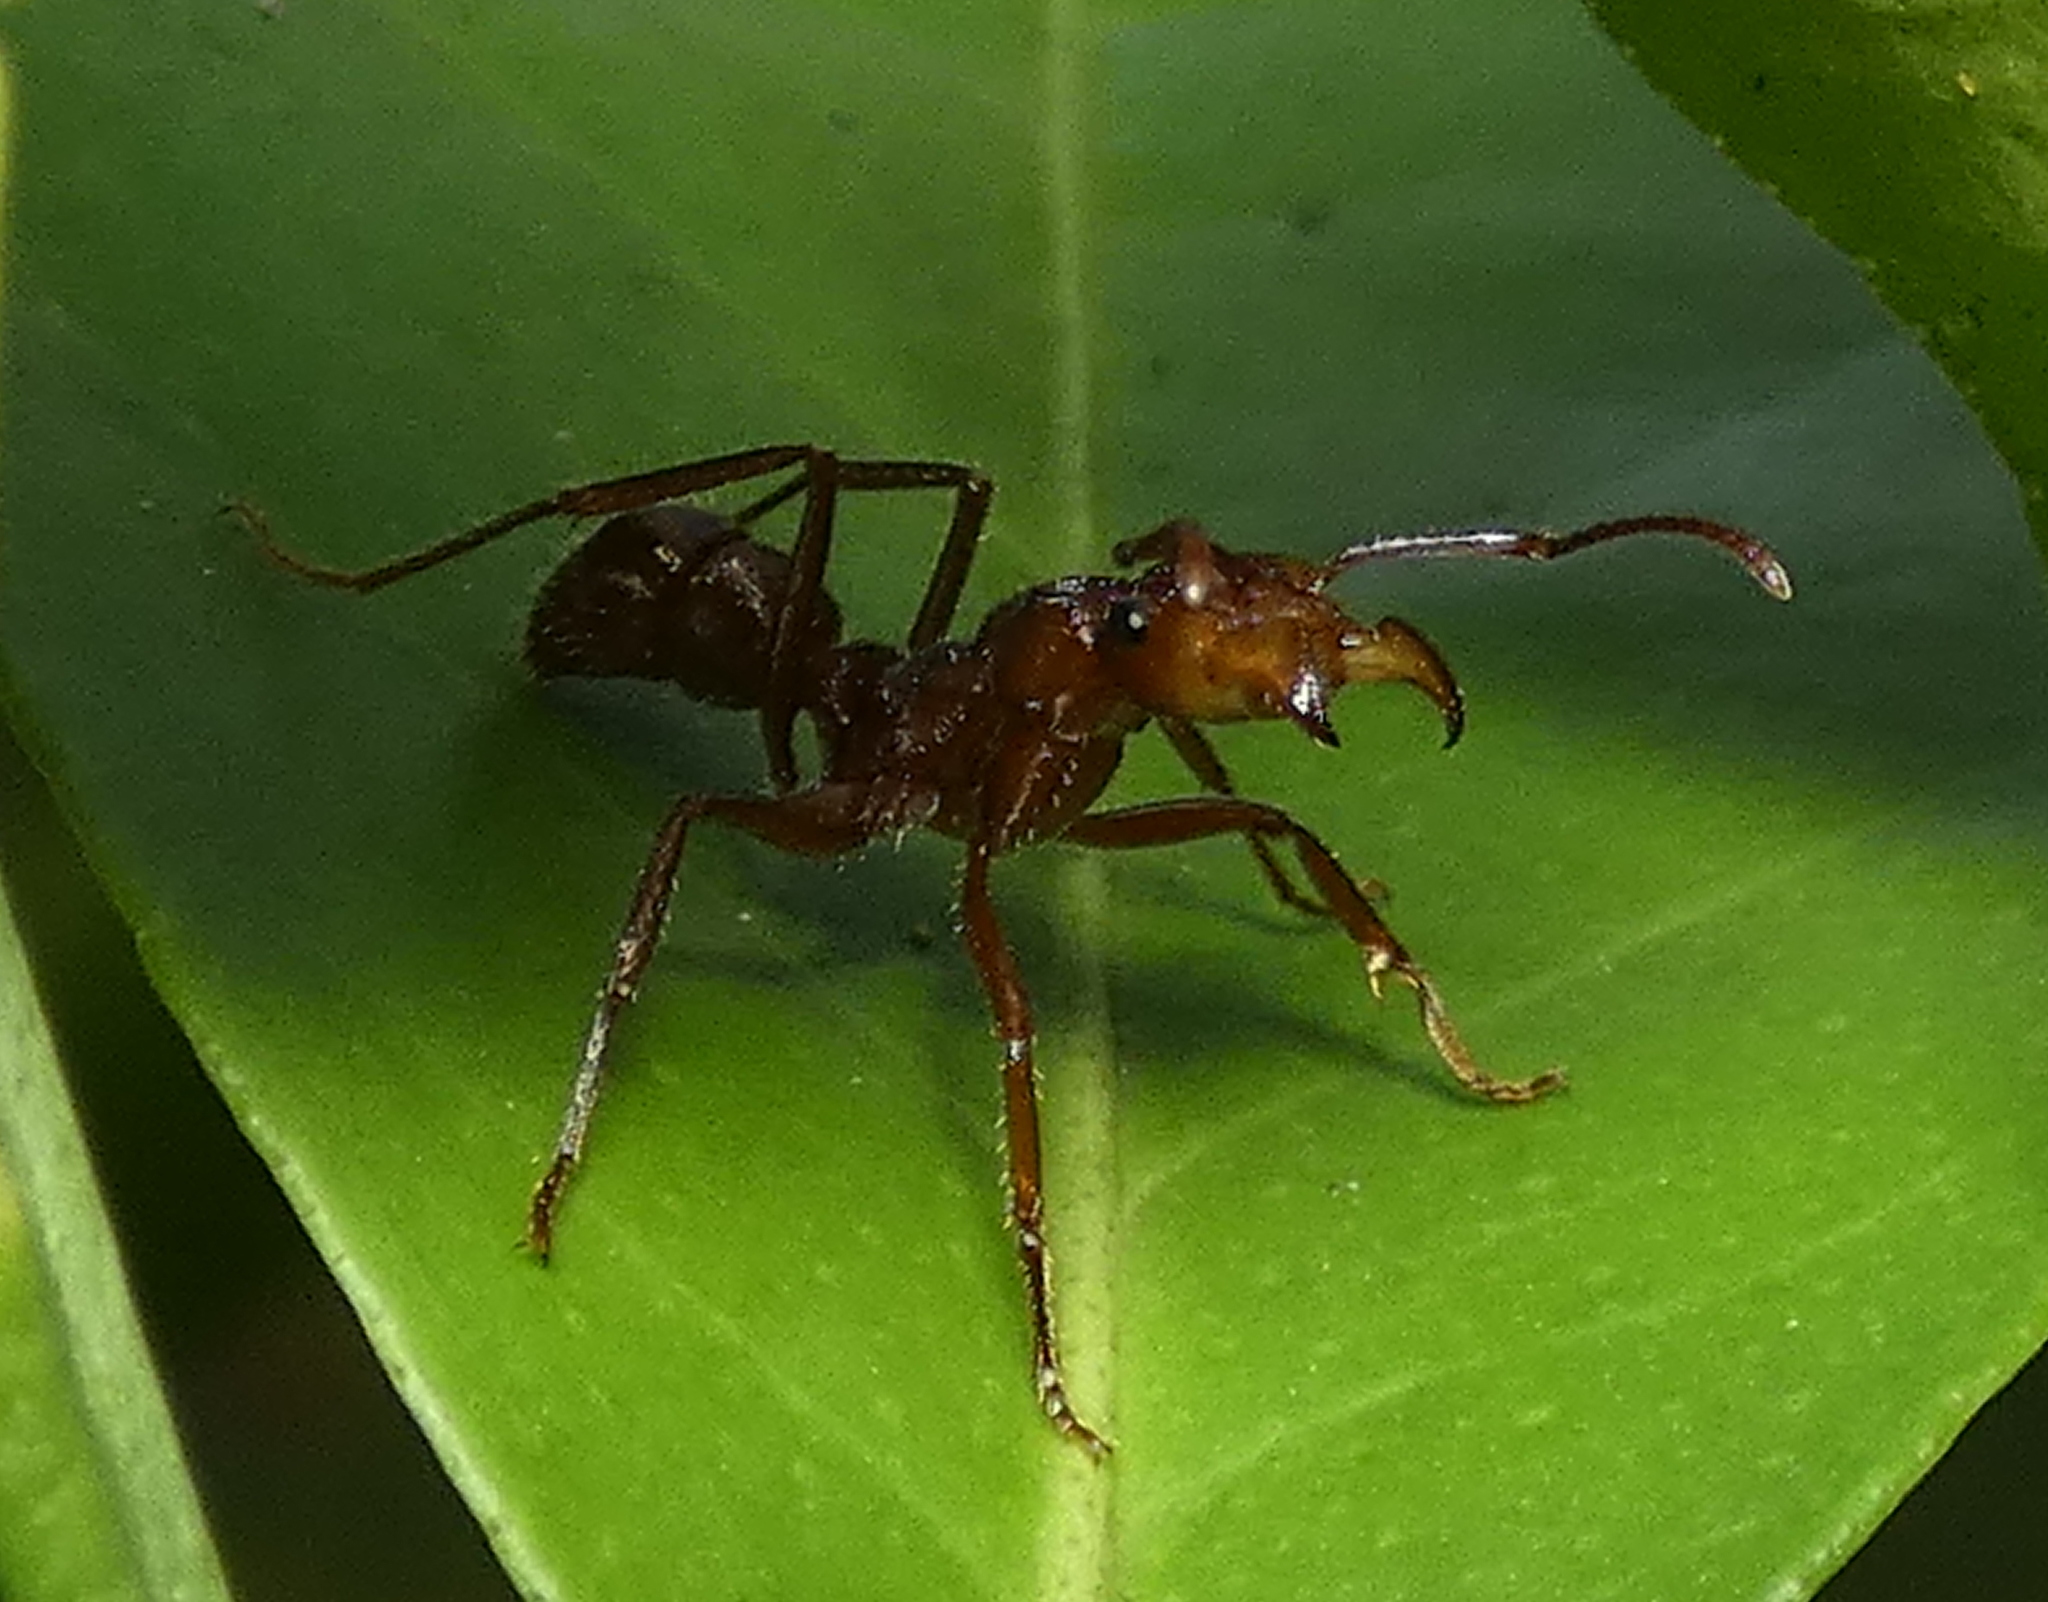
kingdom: Animalia
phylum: Arthropoda
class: Insecta
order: Hymenoptera
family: Formicidae
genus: Ectatomma
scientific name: Ectatomma tuberculatum
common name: Ant
